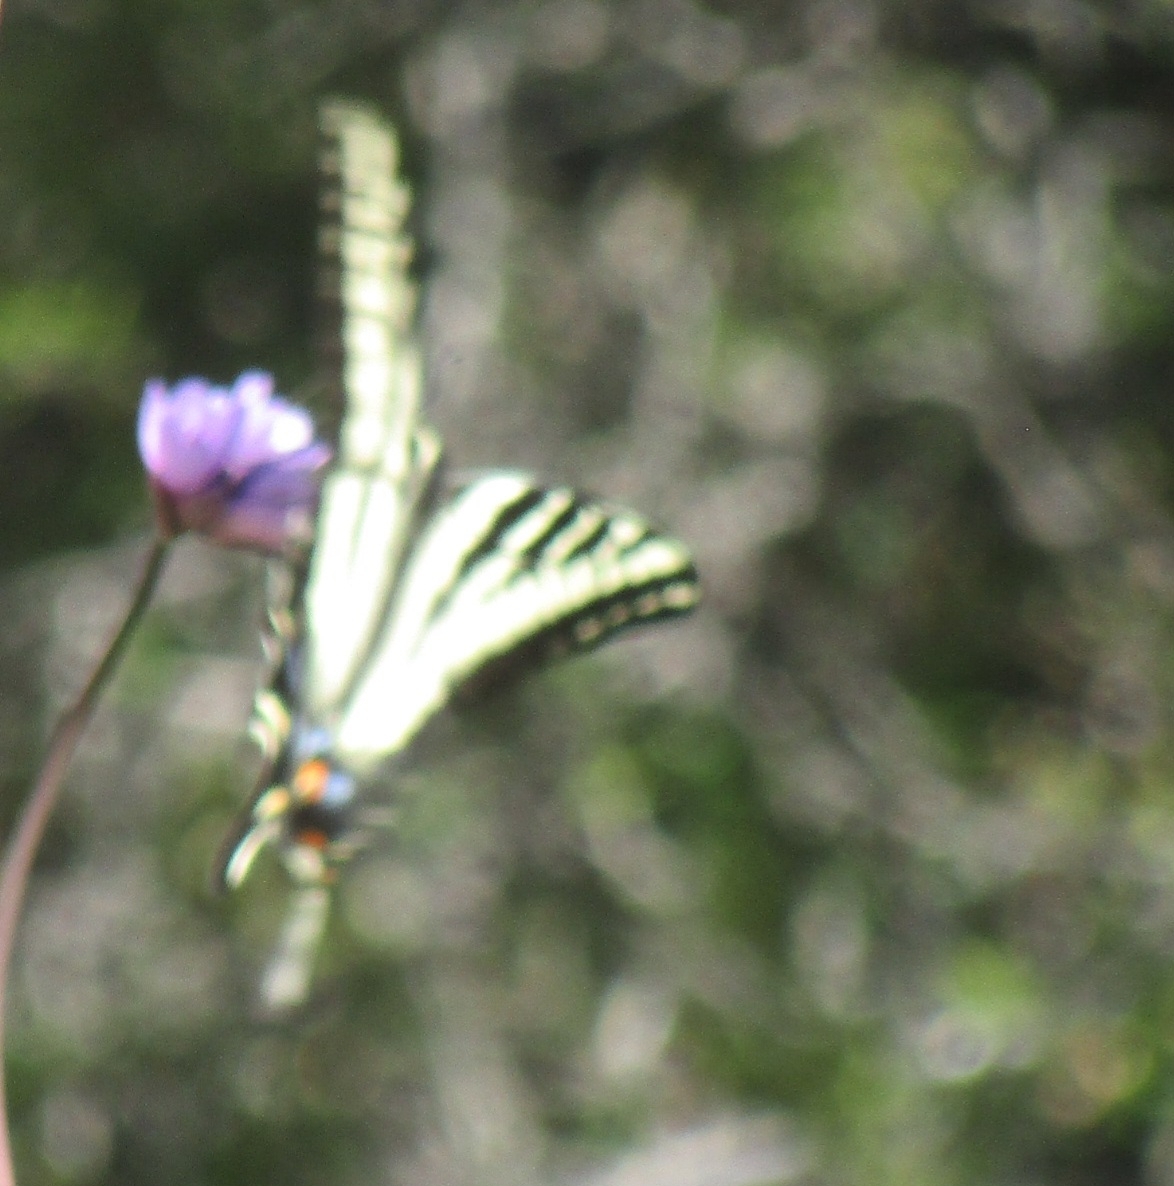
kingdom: Animalia
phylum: Arthropoda
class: Insecta
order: Lepidoptera
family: Papilionidae
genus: Papilio
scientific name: Papilio rutulus
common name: Western tiger swallowtail
